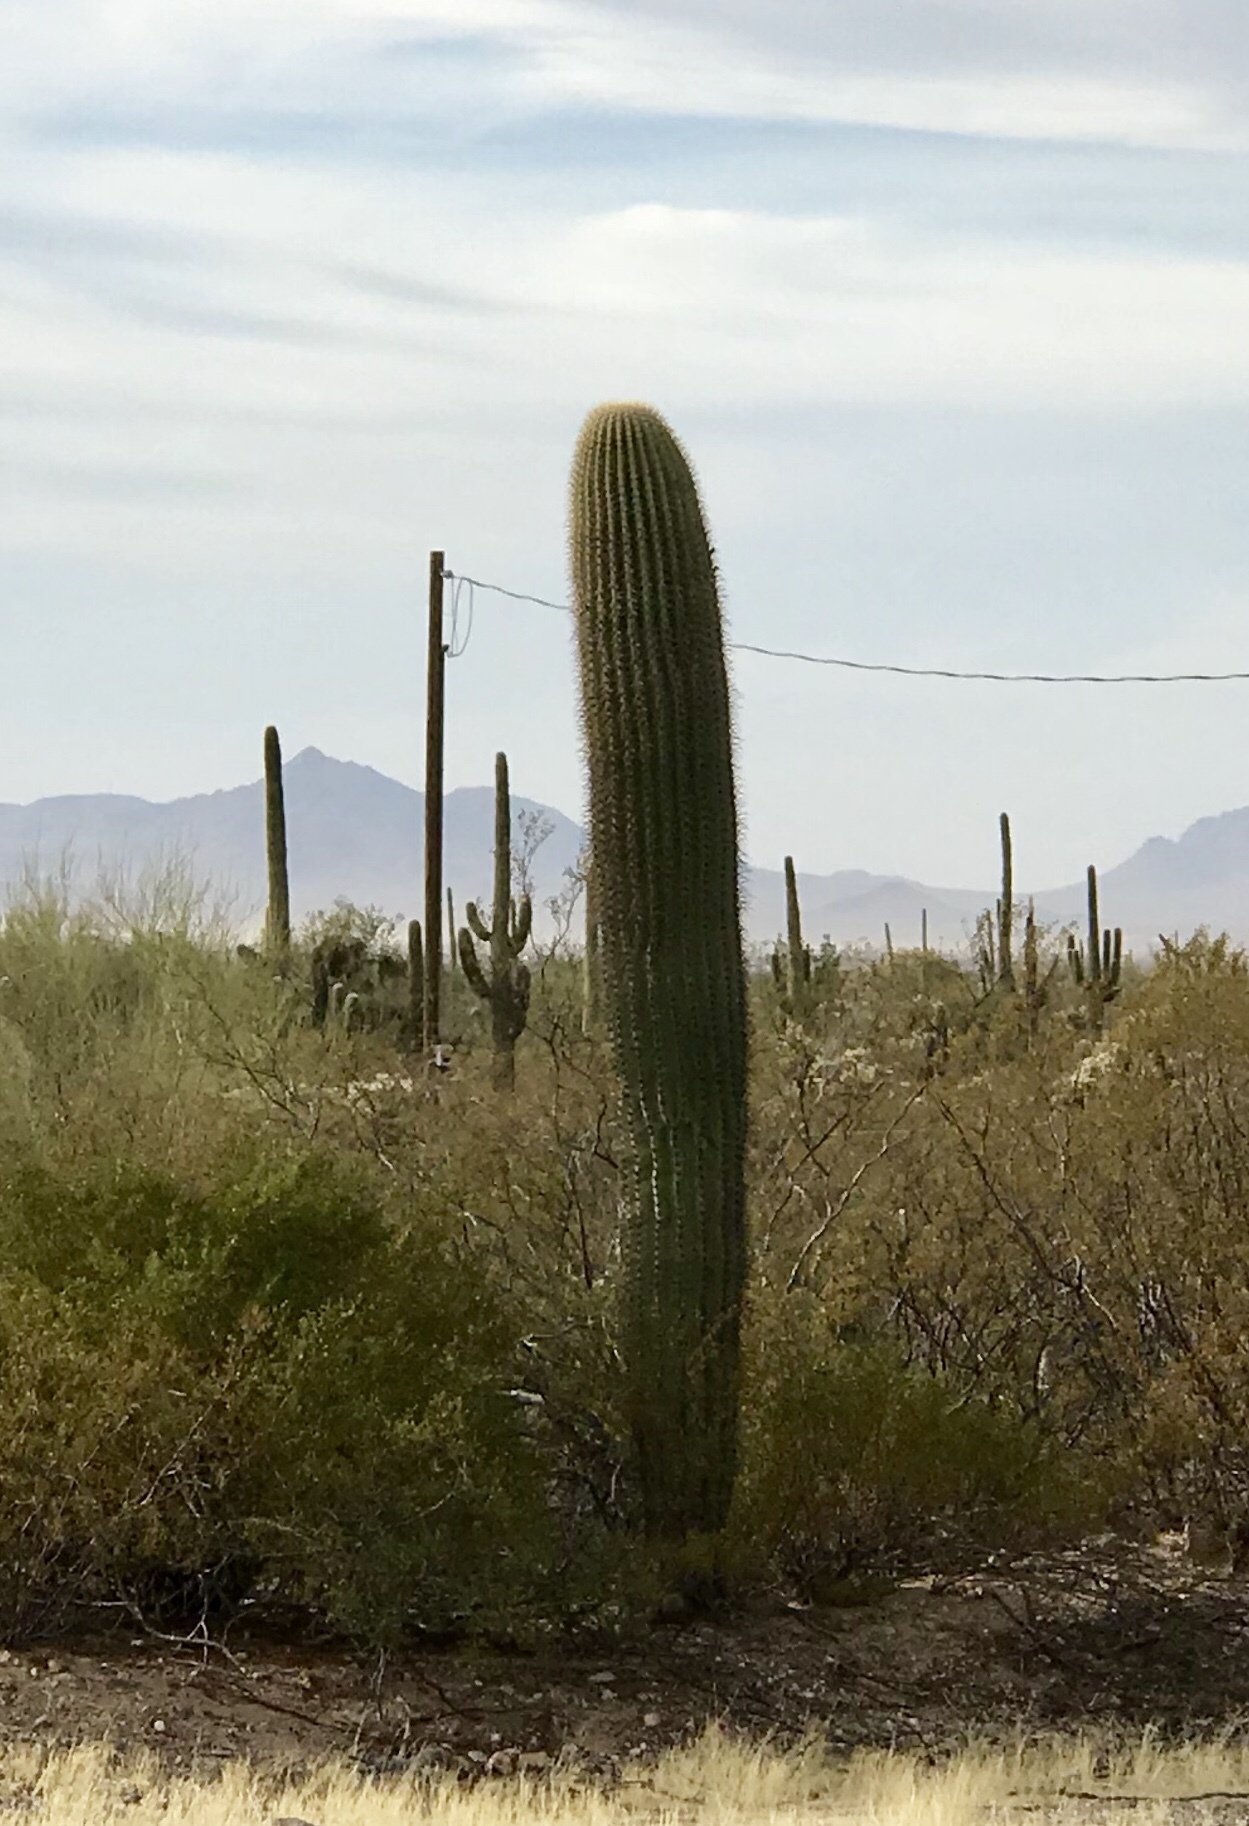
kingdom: Plantae
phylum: Tracheophyta
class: Magnoliopsida
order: Caryophyllales
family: Cactaceae
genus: Carnegiea
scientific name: Carnegiea gigantea
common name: Saguaro
